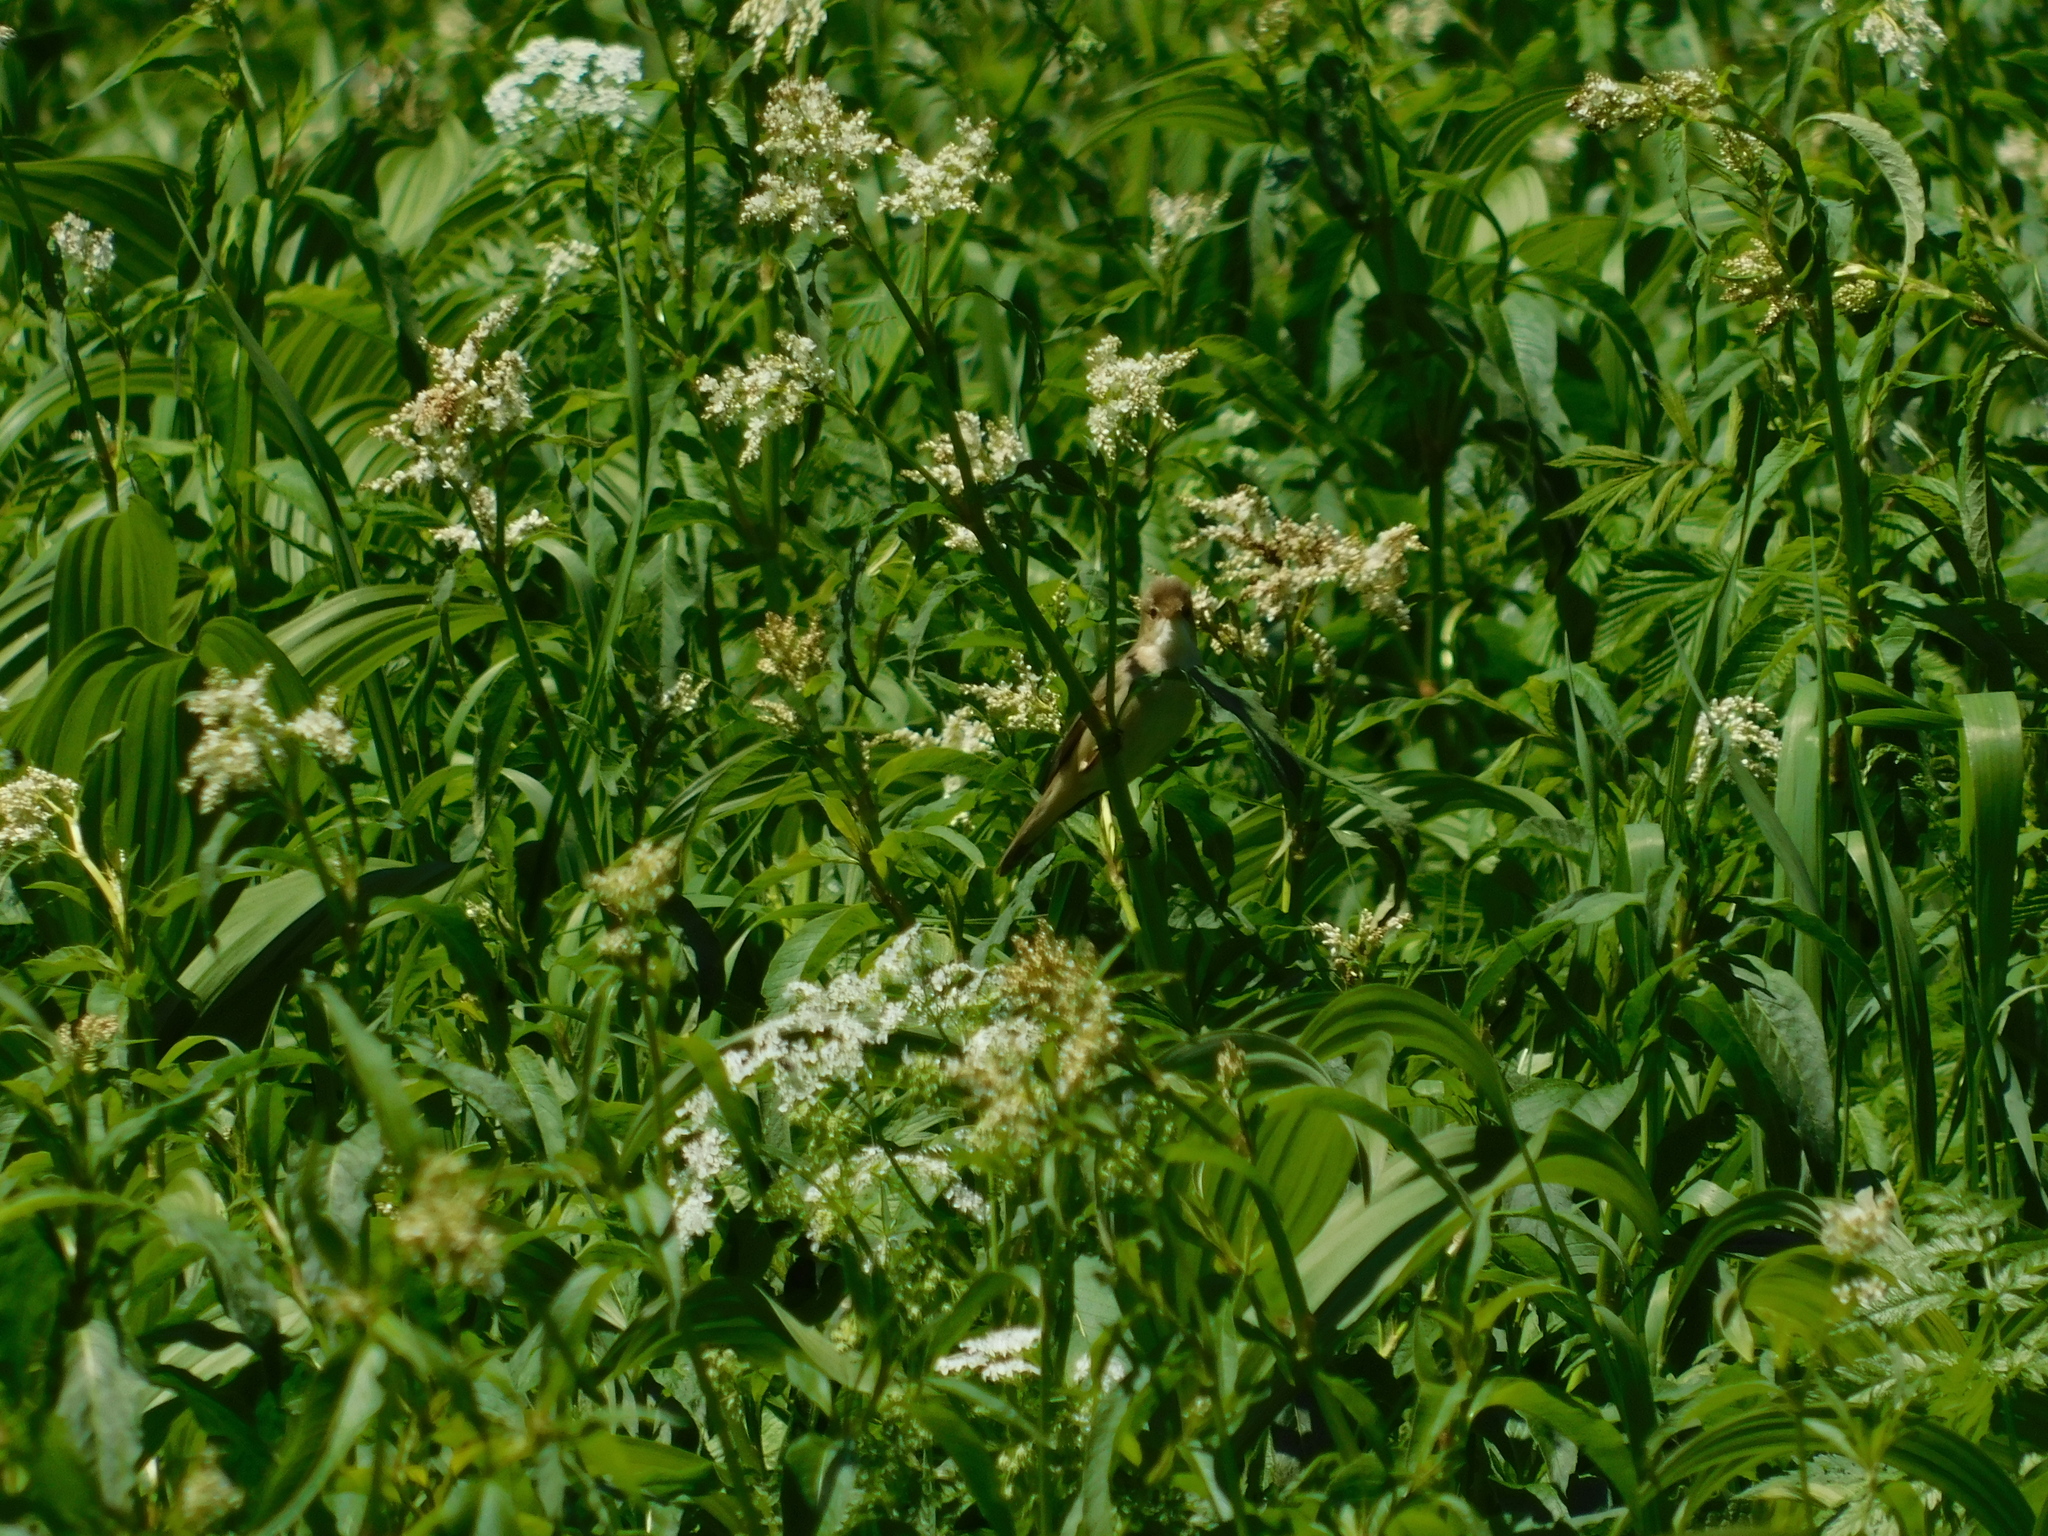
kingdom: Animalia
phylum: Chordata
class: Aves
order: Passeriformes
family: Acrocephalidae
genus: Acrocephalus
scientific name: Acrocephalus palustris
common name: Marsh warbler
